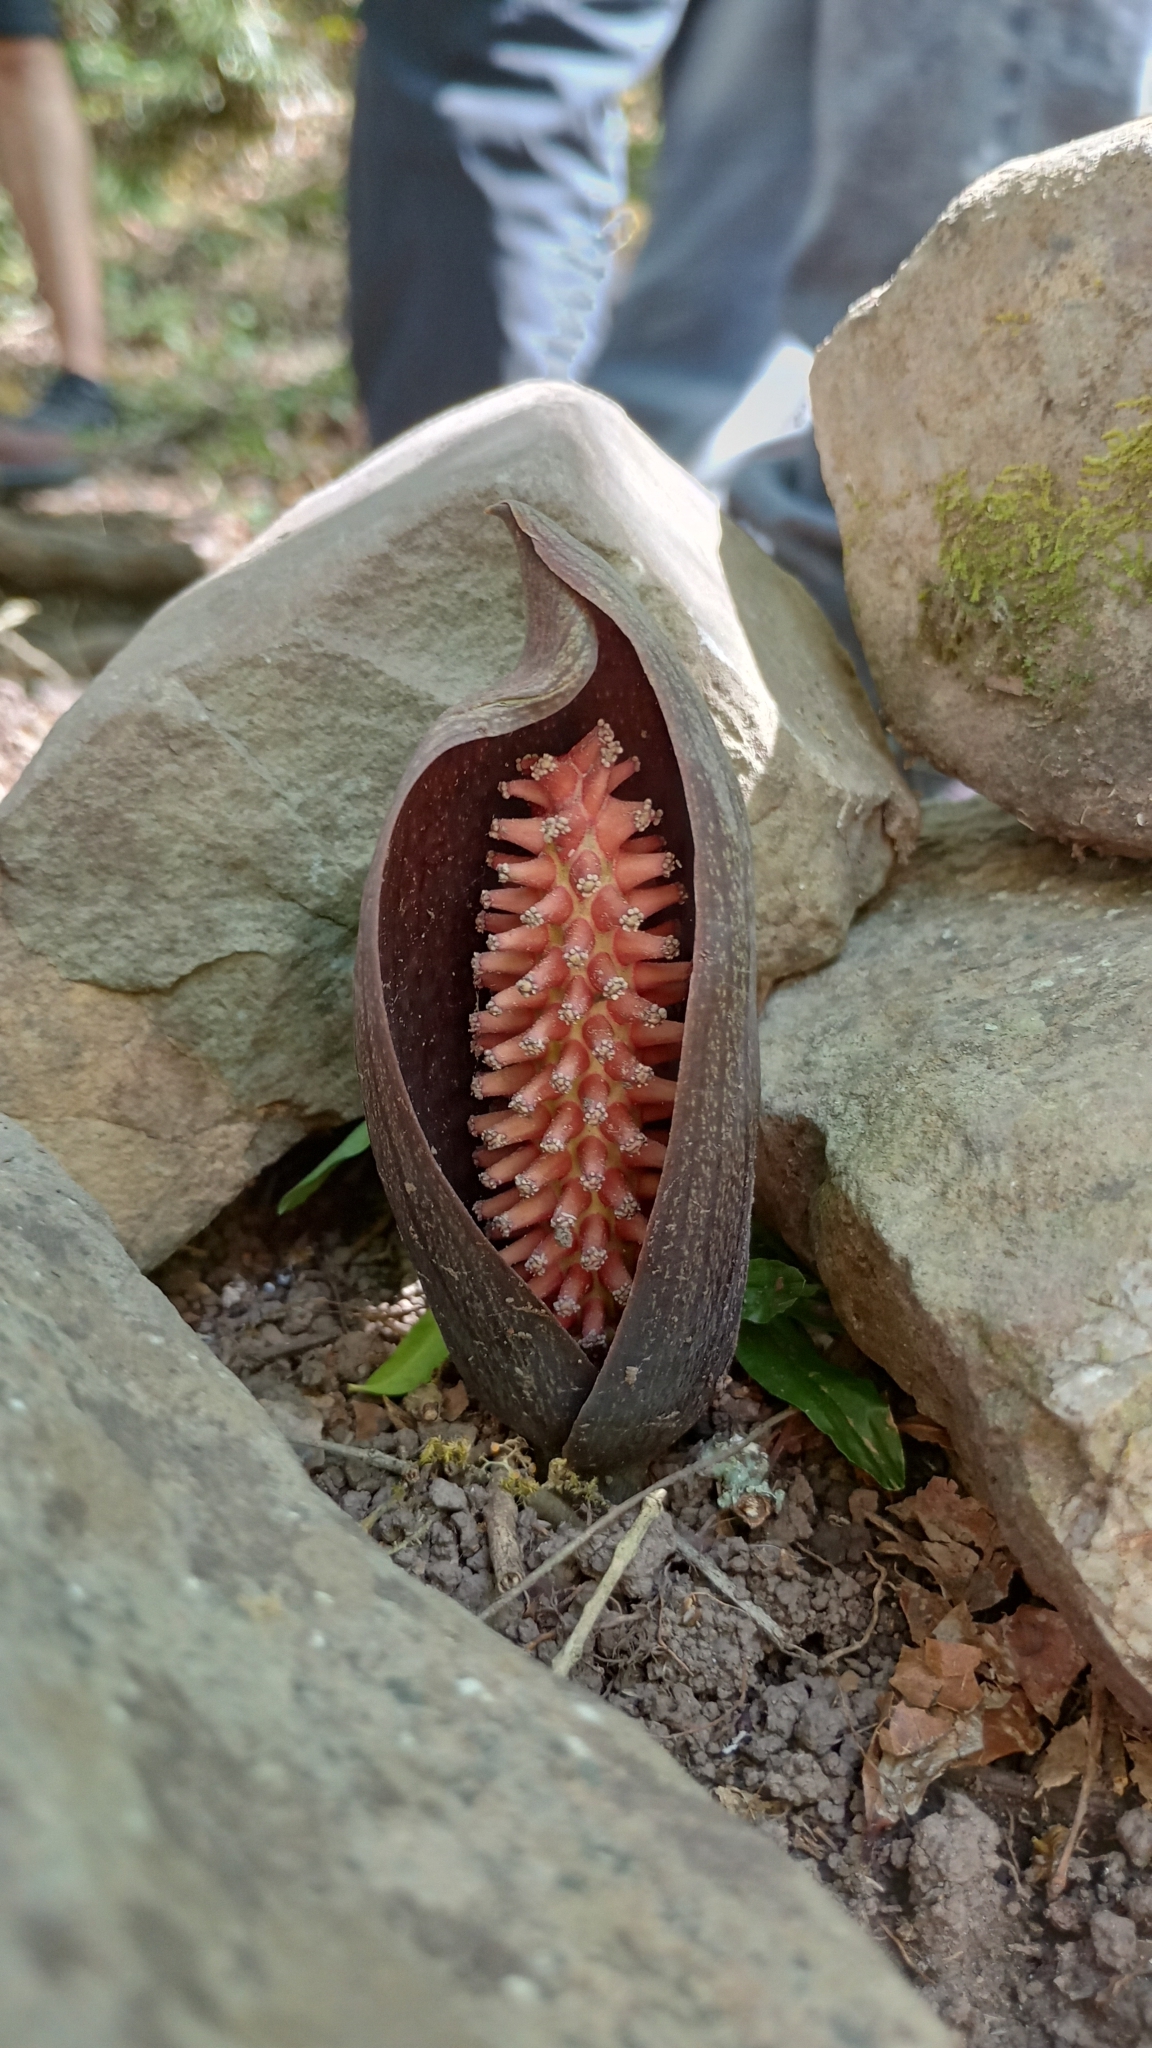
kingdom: Plantae
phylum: Tracheophyta
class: Liliopsida
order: Alismatales
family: Araceae
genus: Gorgonidium
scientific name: Gorgonidium vermicidum
